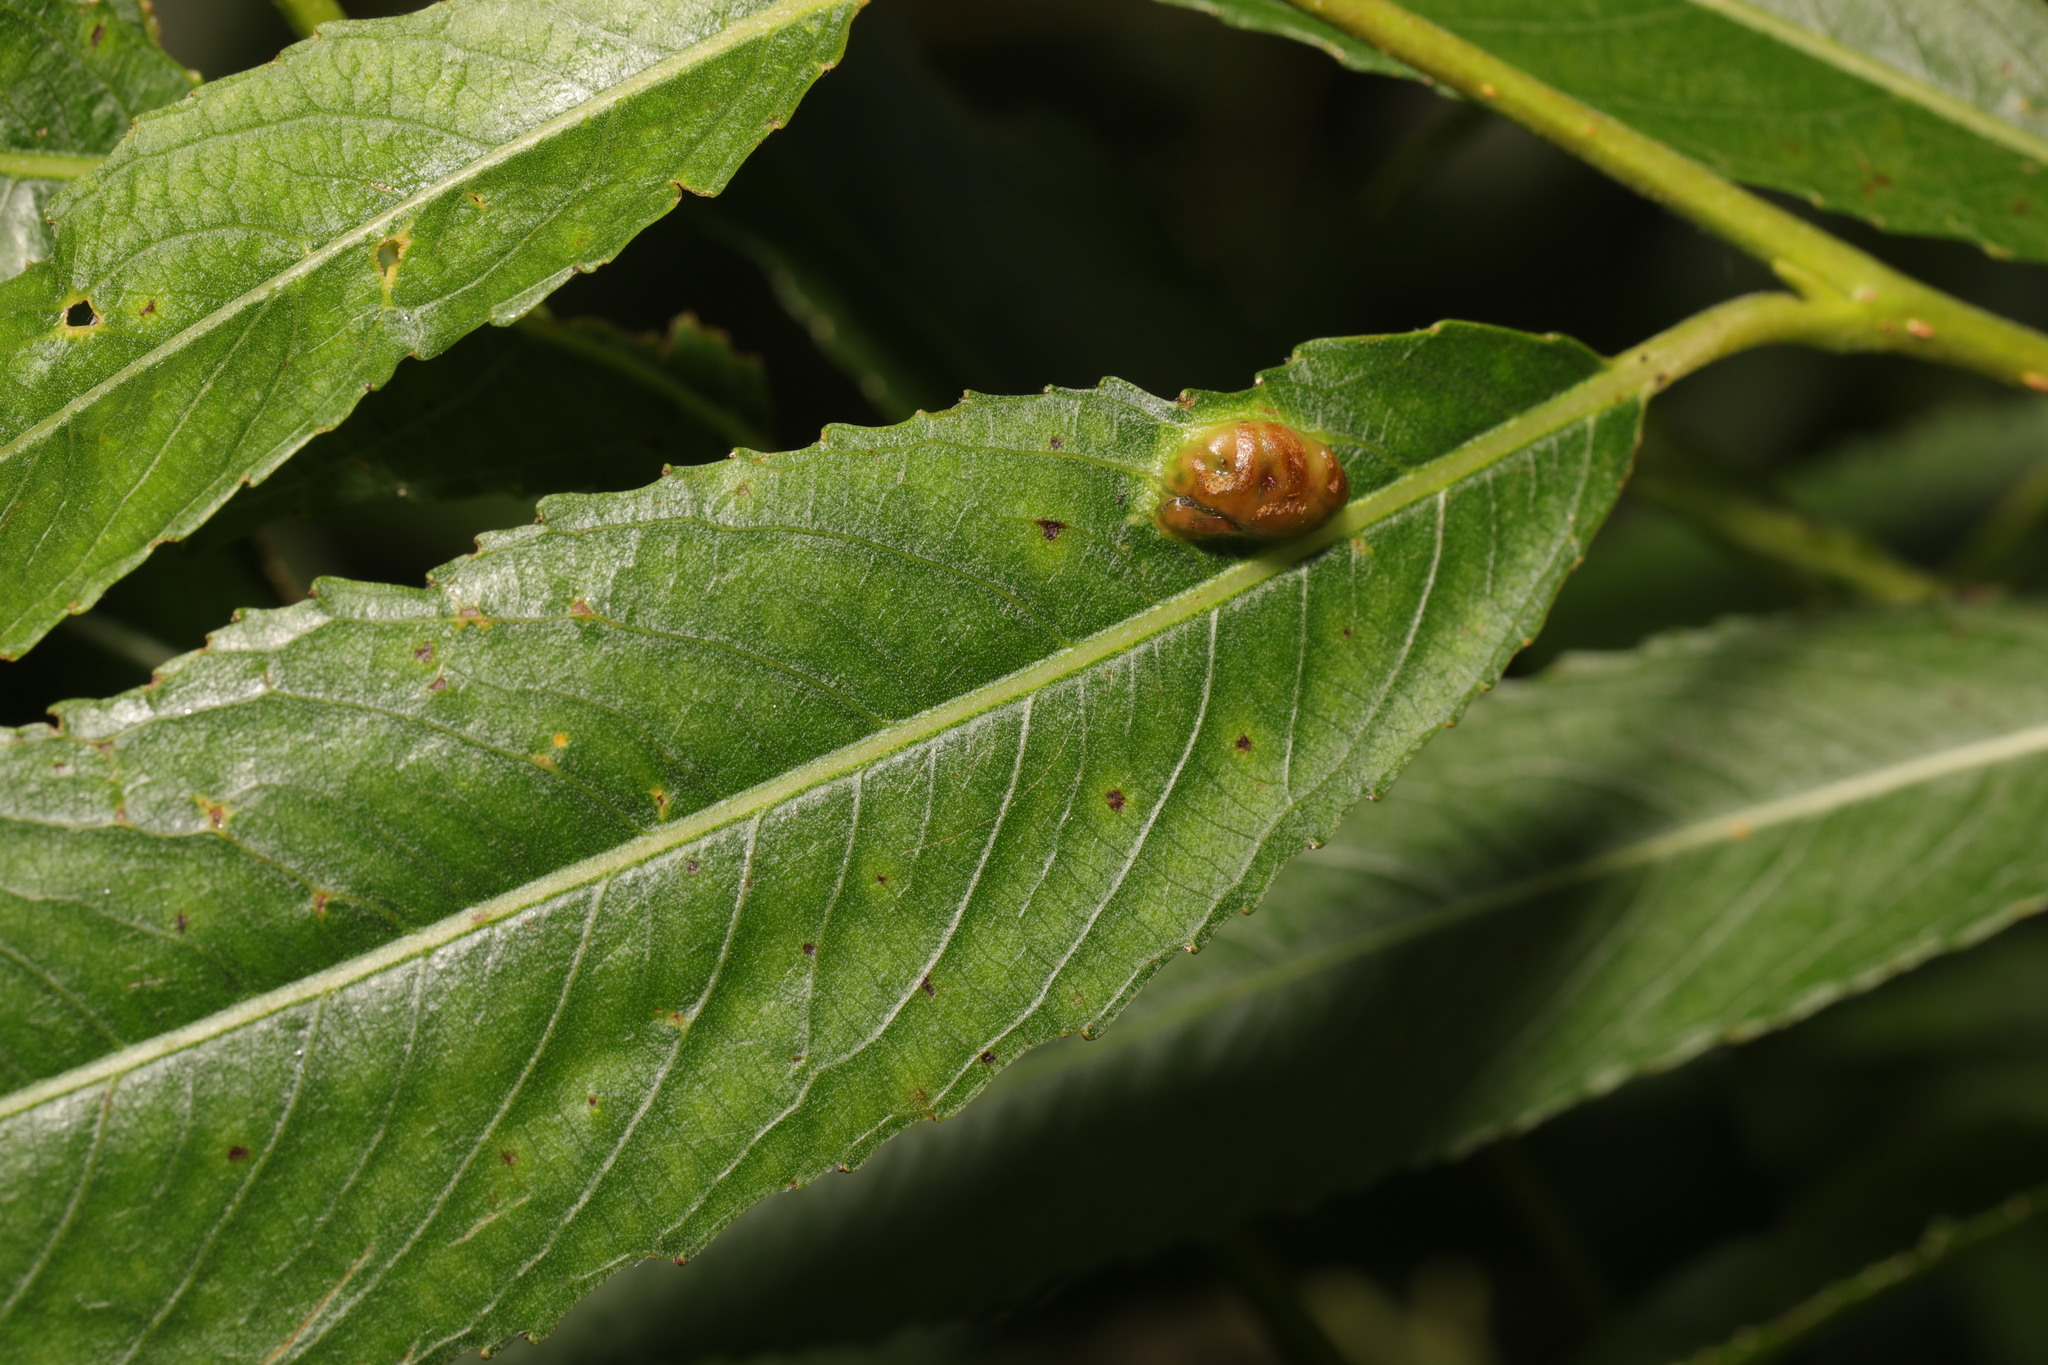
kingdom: Animalia
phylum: Arthropoda
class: Insecta
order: Hymenoptera
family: Tenthredinidae
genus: Pontania
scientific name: Pontania proxima
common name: Common sawfly
